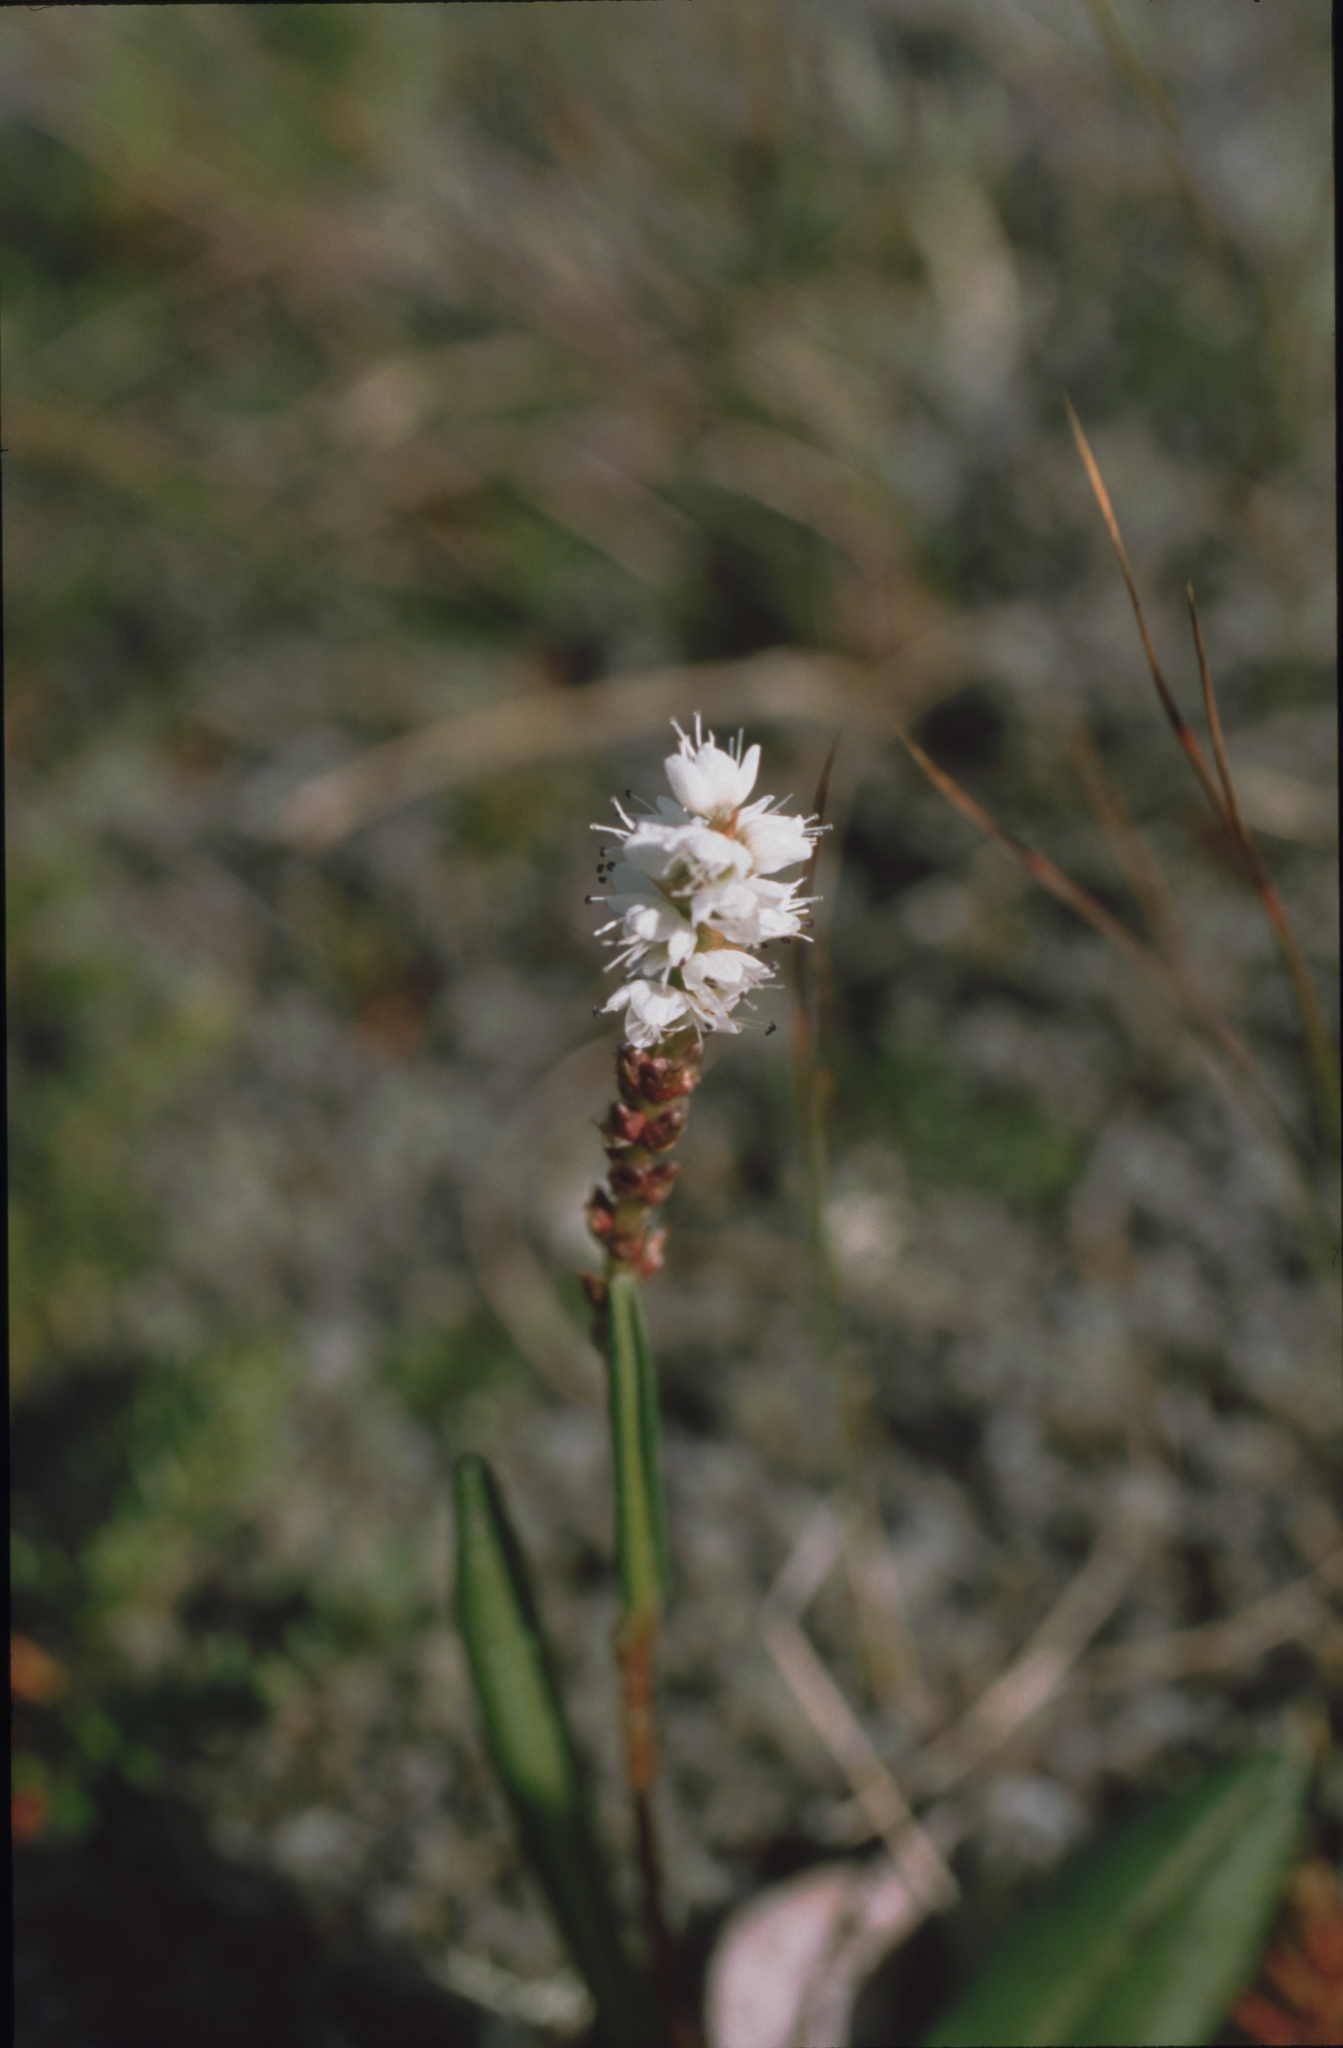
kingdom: Plantae
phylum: Tracheophyta
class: Magnoliopsida
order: Caryophyllales
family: Polygonaceae
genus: Bistorta
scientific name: Bistorta vivipara
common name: Alpine bistort
